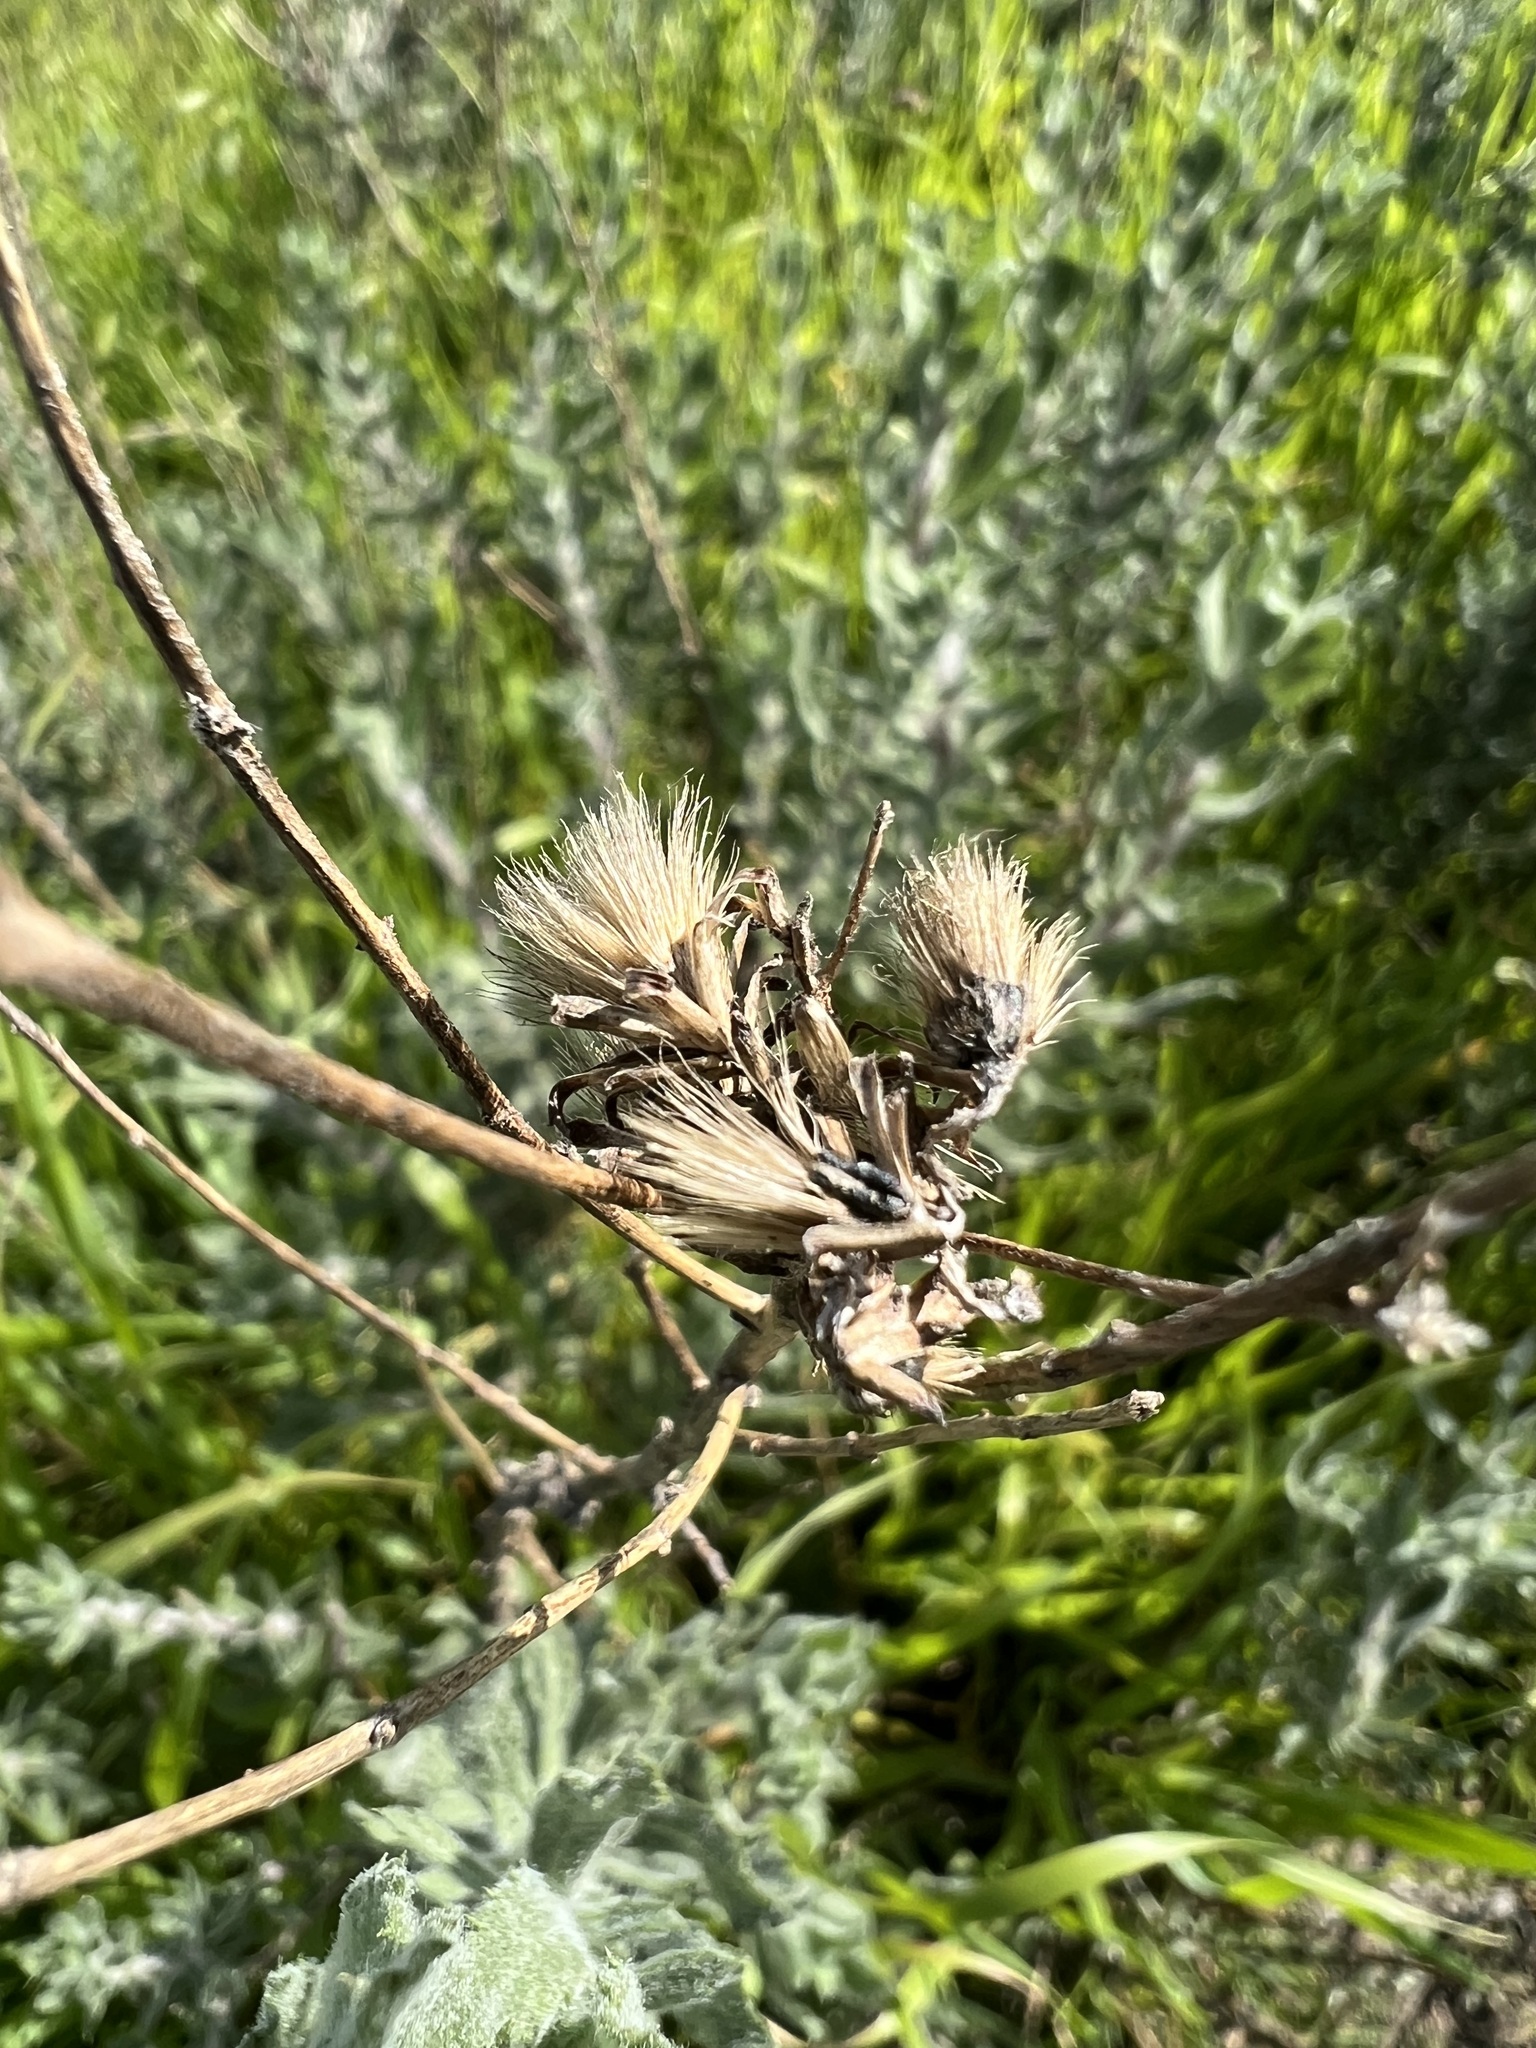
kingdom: Plantae
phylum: Tracheophyta
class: Magnoliopsida
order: Asterales
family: Asteraceae
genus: Isocoma
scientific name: Isocoma menziesii
